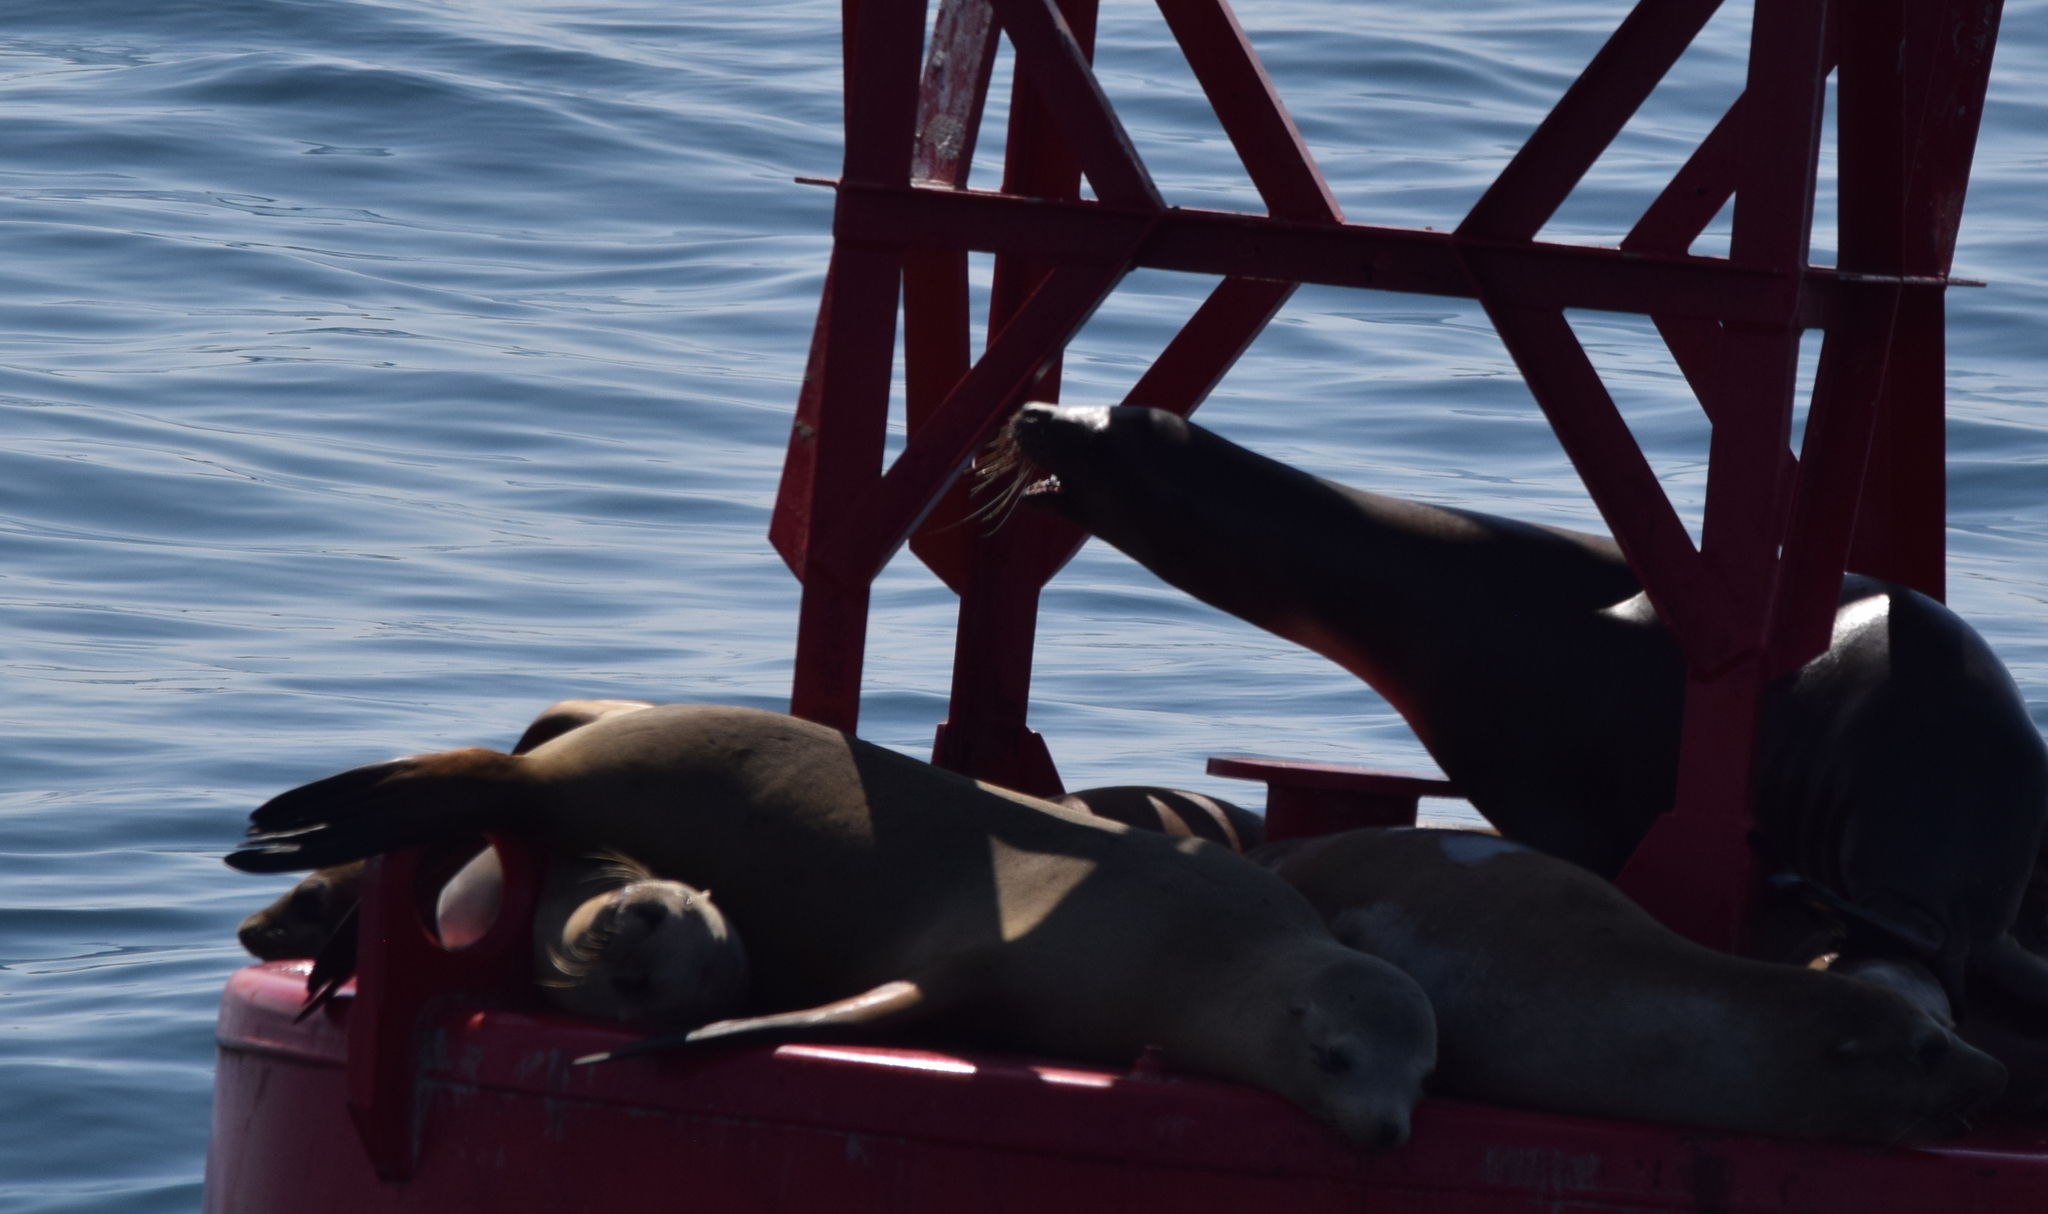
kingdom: Animalia
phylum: Chordata
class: Mammalia
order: Carnivora
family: Otariidae
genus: Zalophus
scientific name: Zalophus californianus
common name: California sea lion
